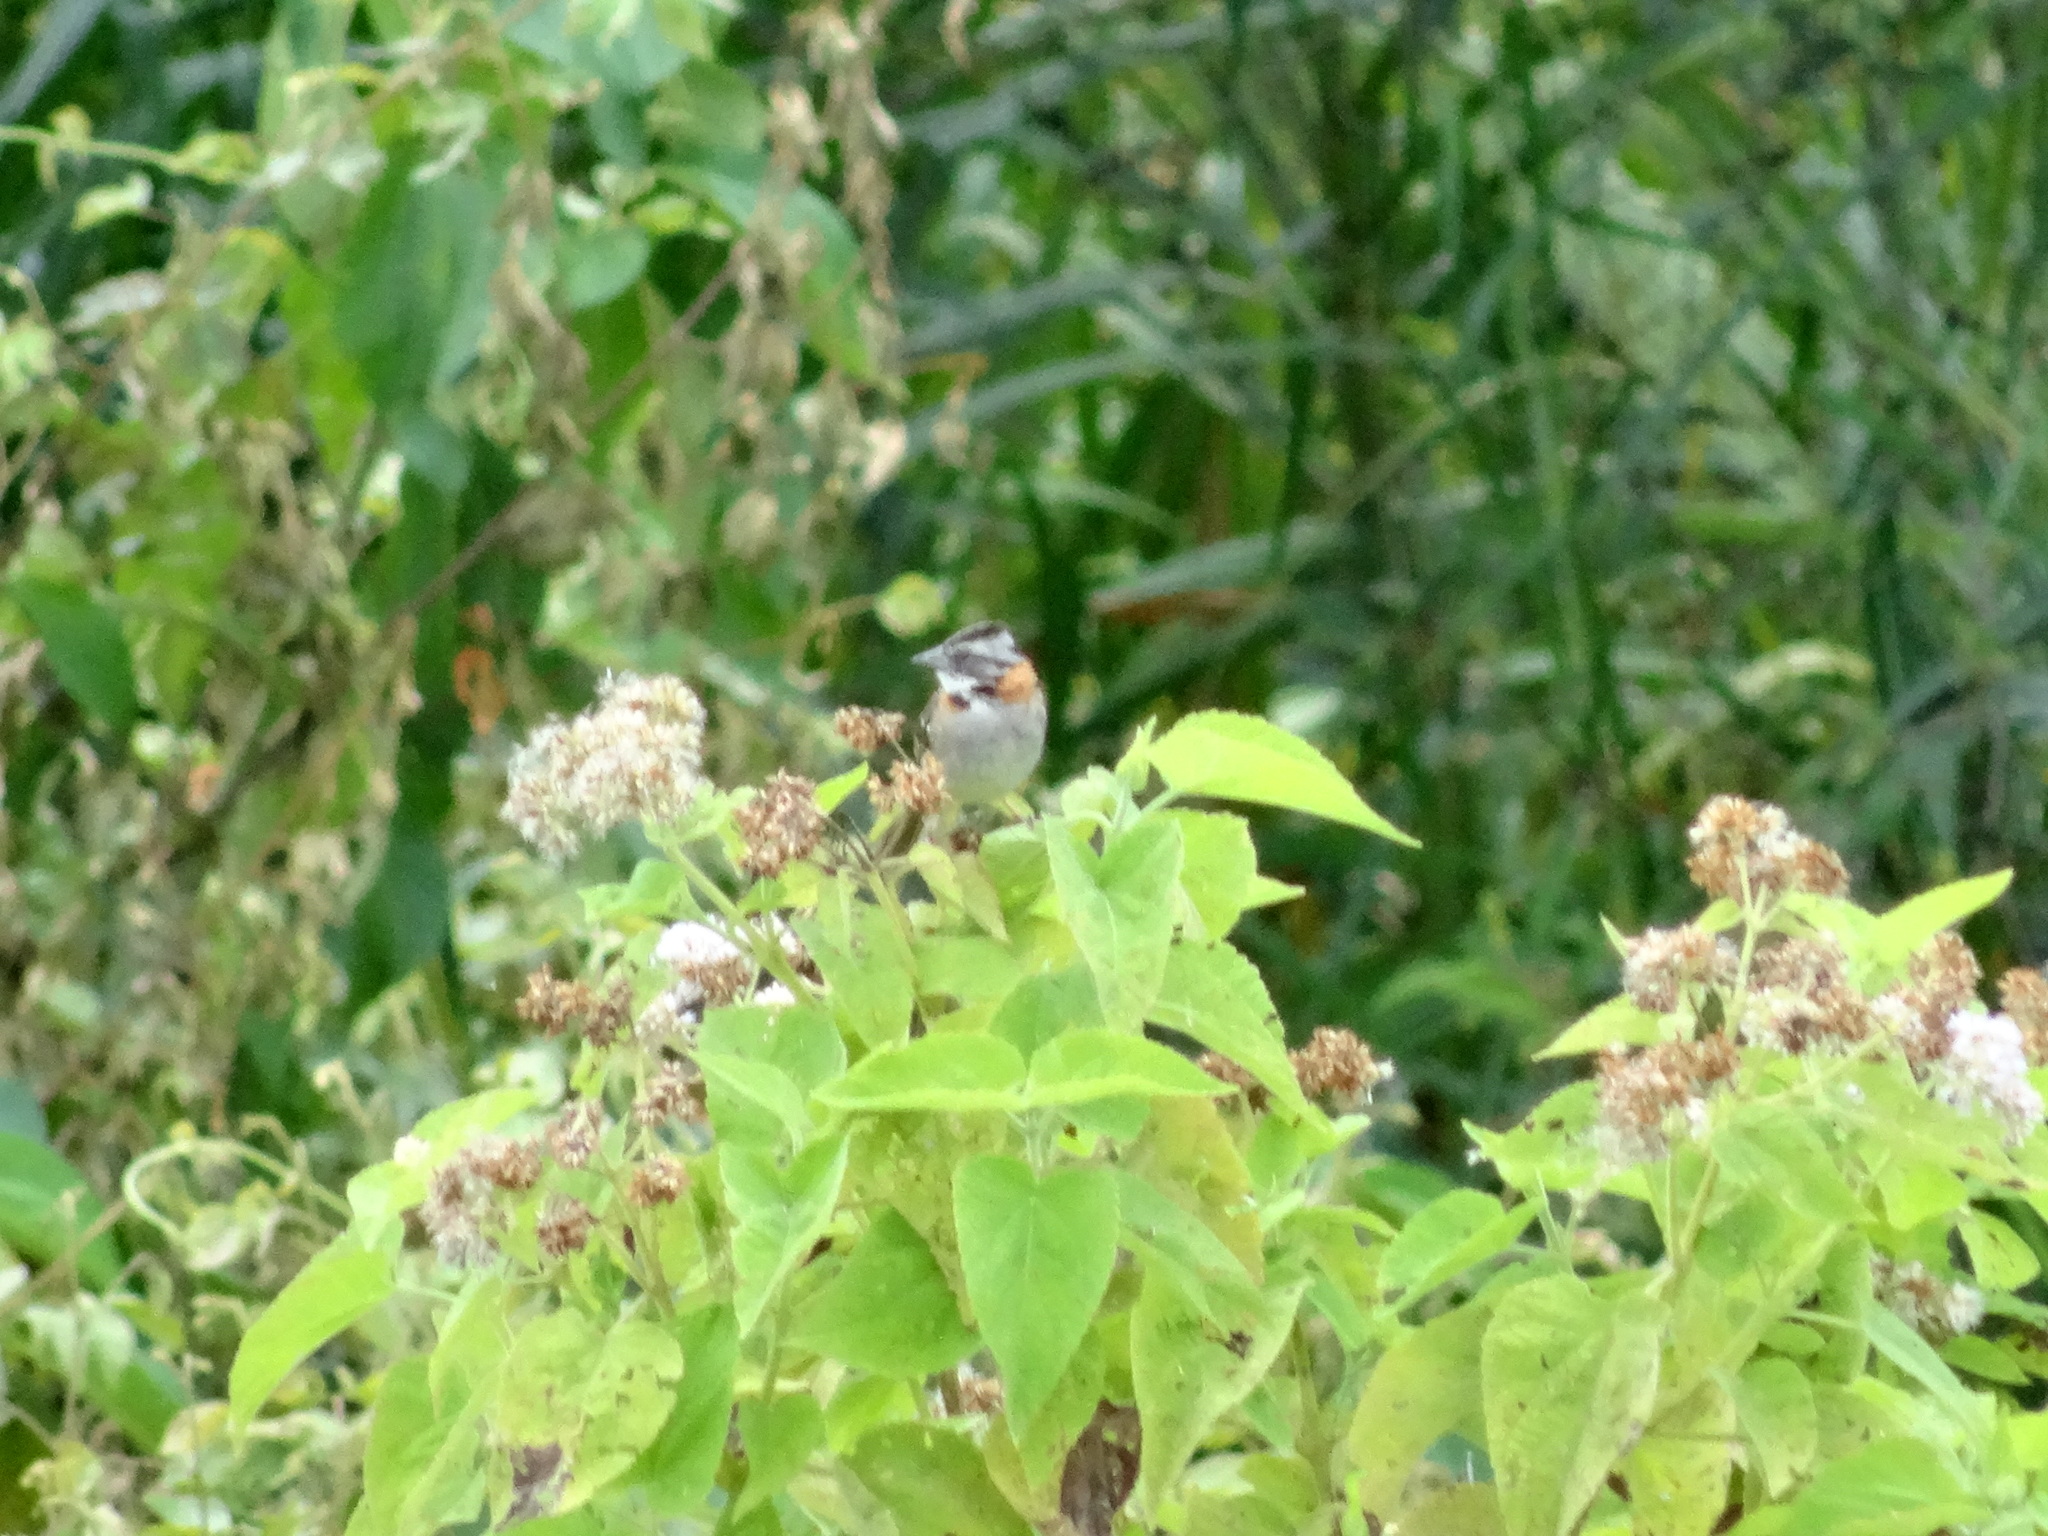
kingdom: Animalia
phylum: Chordata
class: Aves
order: Passeriformes
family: Passerellidae
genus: Zonotrichia
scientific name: Zonotrichia capensis
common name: Rufous-collared sparrow
